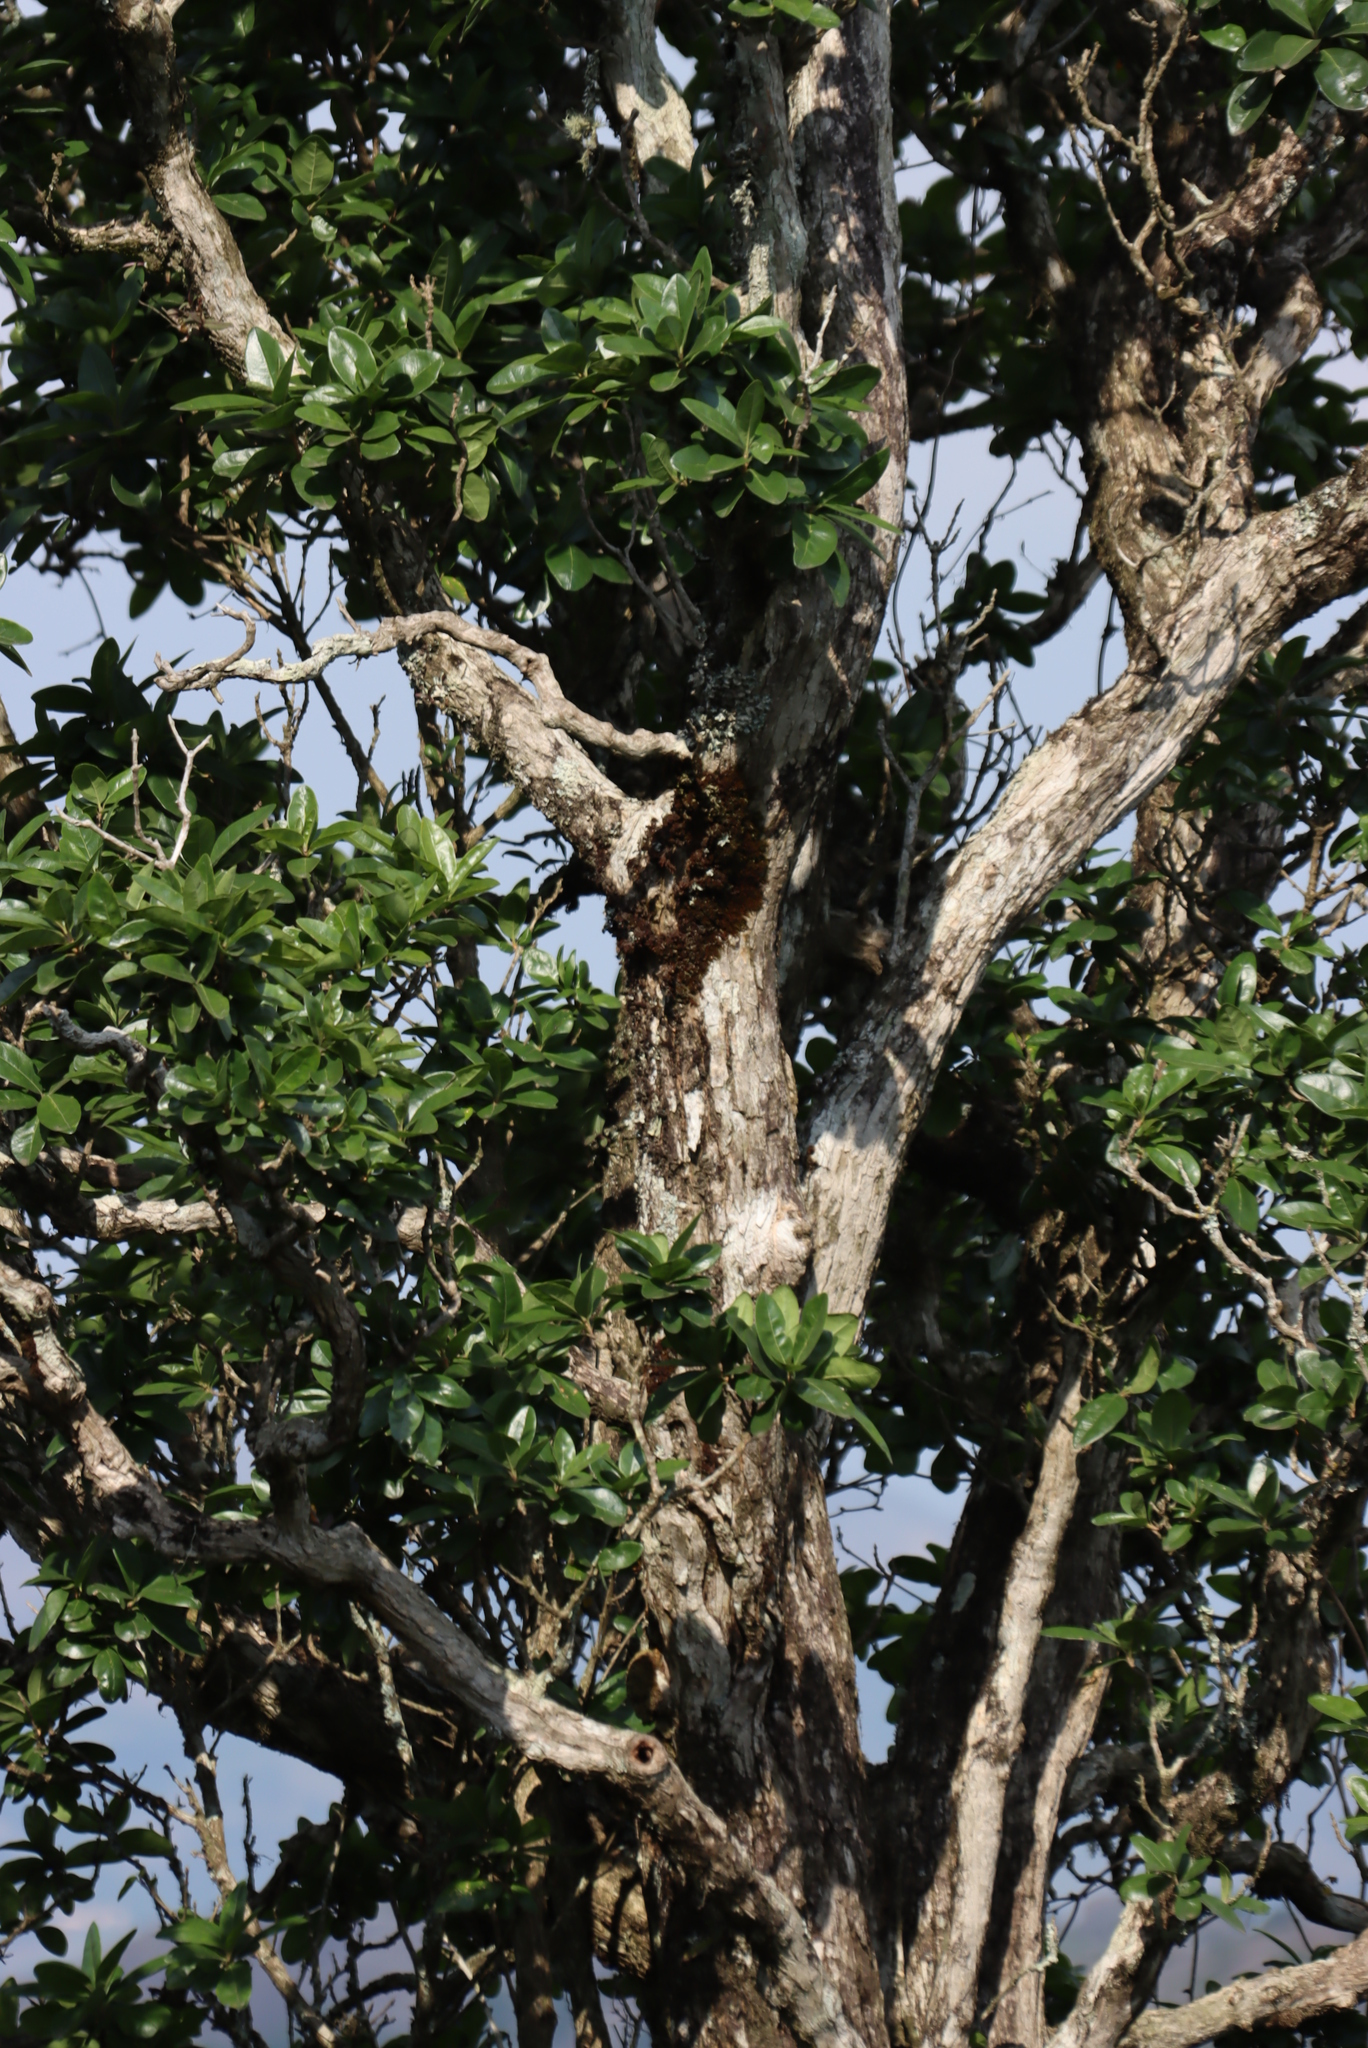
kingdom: Plantae
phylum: Tracheophyta
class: Magnoliopsida
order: Lamiales
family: Stilbaceae
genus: Nuxia
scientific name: Nuxia congesta
